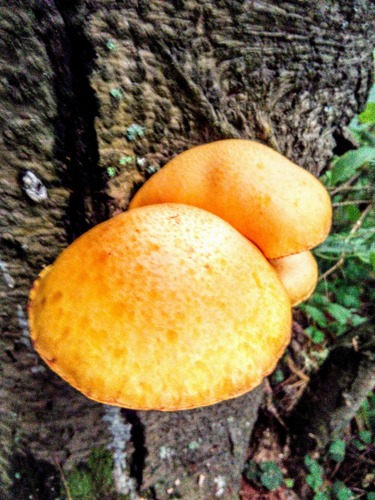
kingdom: Fungi
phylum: Basidiomycota
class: Agaricomycetes
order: Agaricales
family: Hymenogastraceae
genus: Gymnopilus
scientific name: Gymnopilus junonius
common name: Spectacular rustgill
